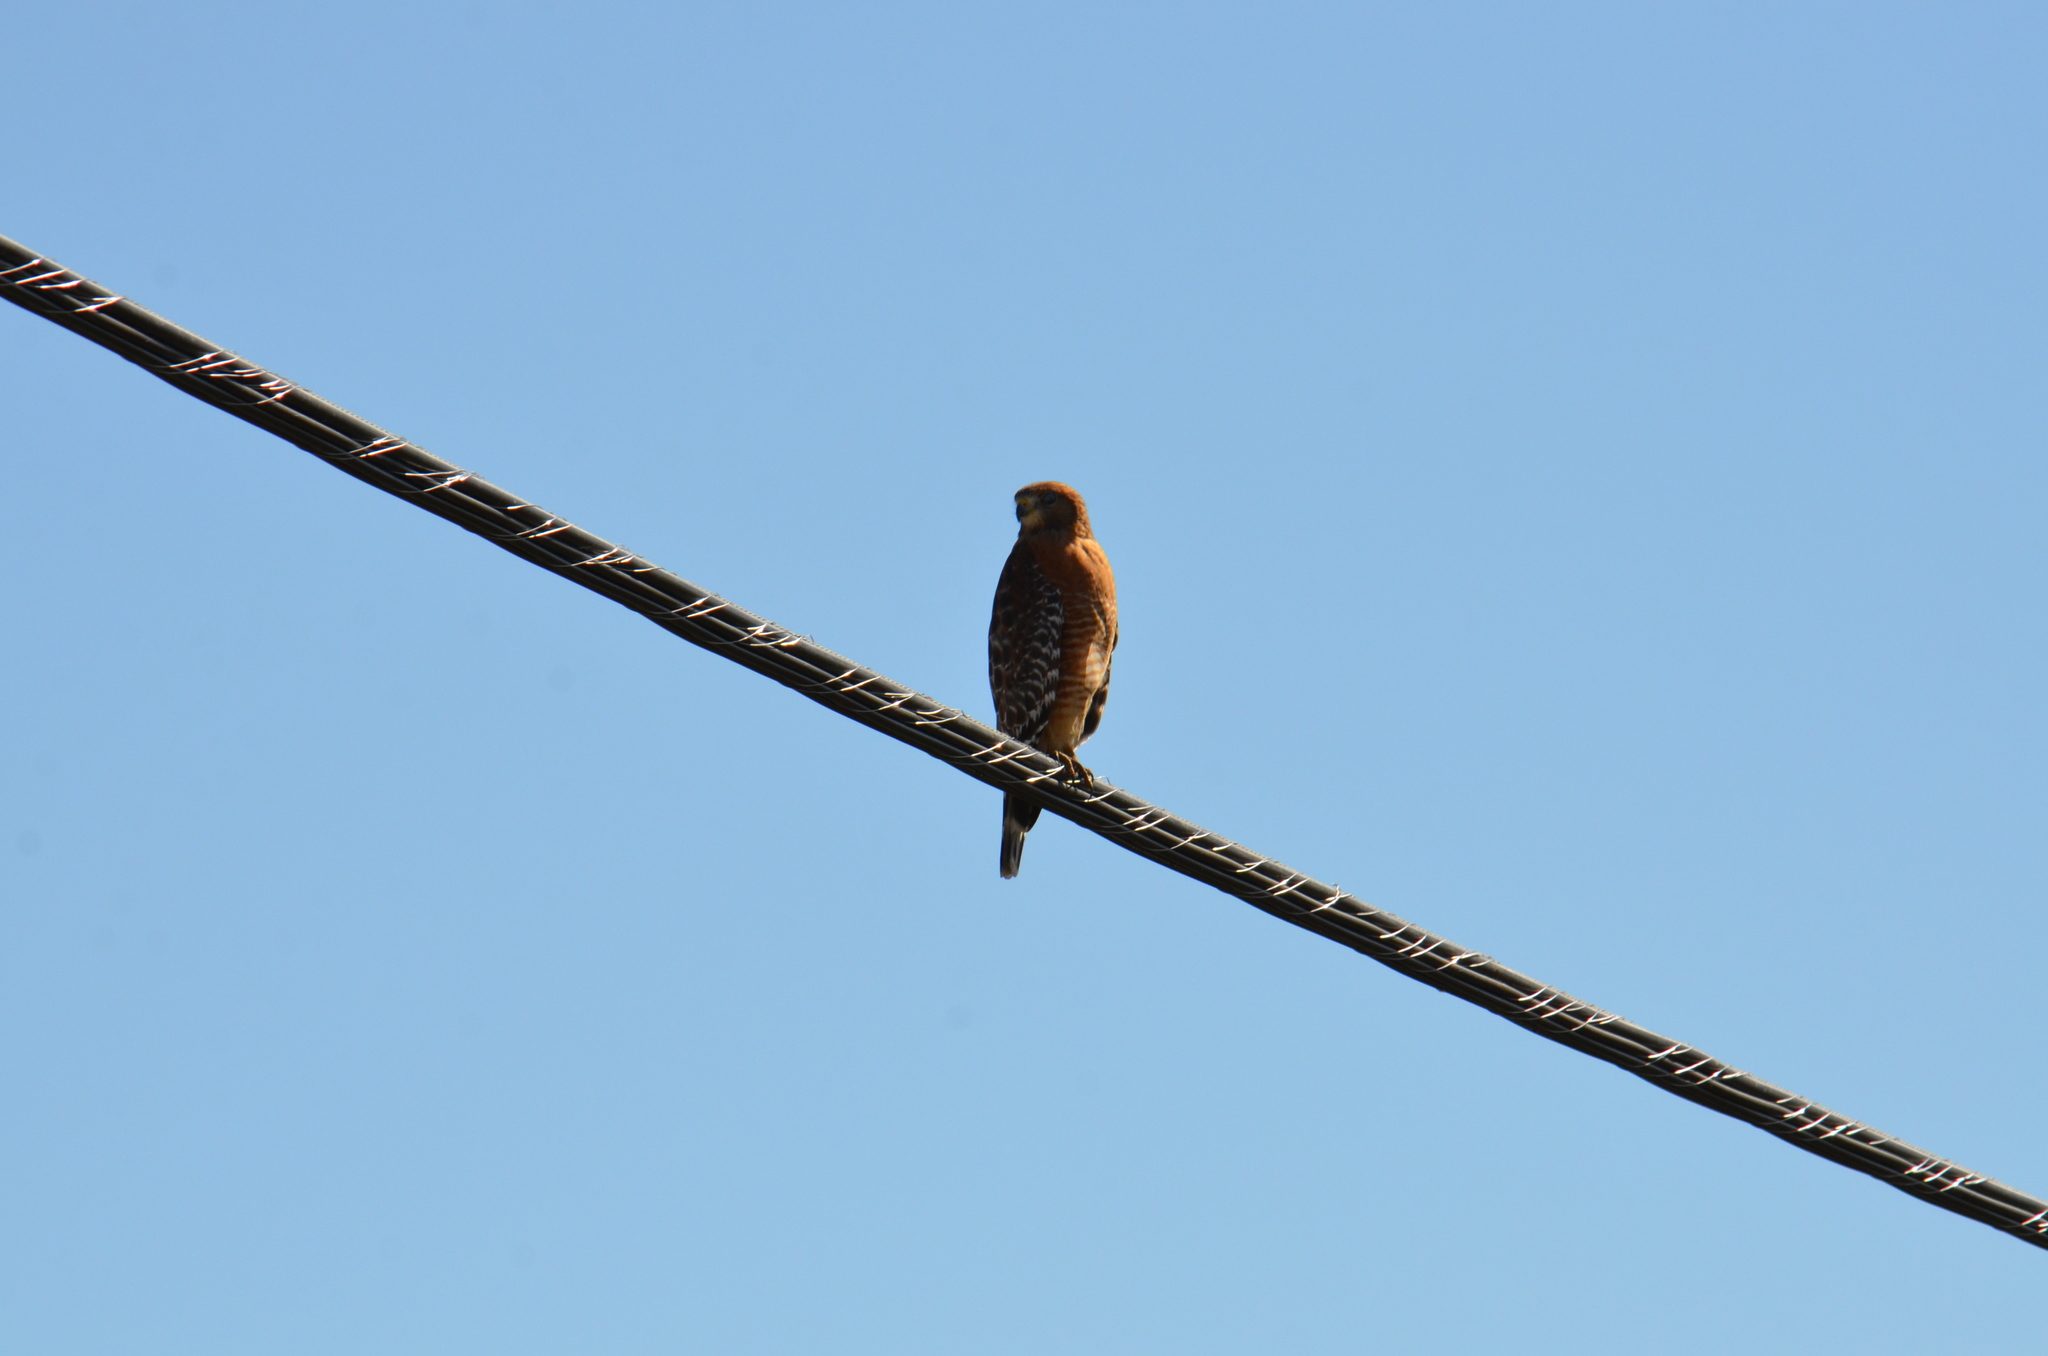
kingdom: Animalia
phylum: Chordata
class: Aves
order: Accipitriformes
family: Accipitridae
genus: Buteo
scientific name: Buteo lineatus
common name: Red-shouldered hawk
